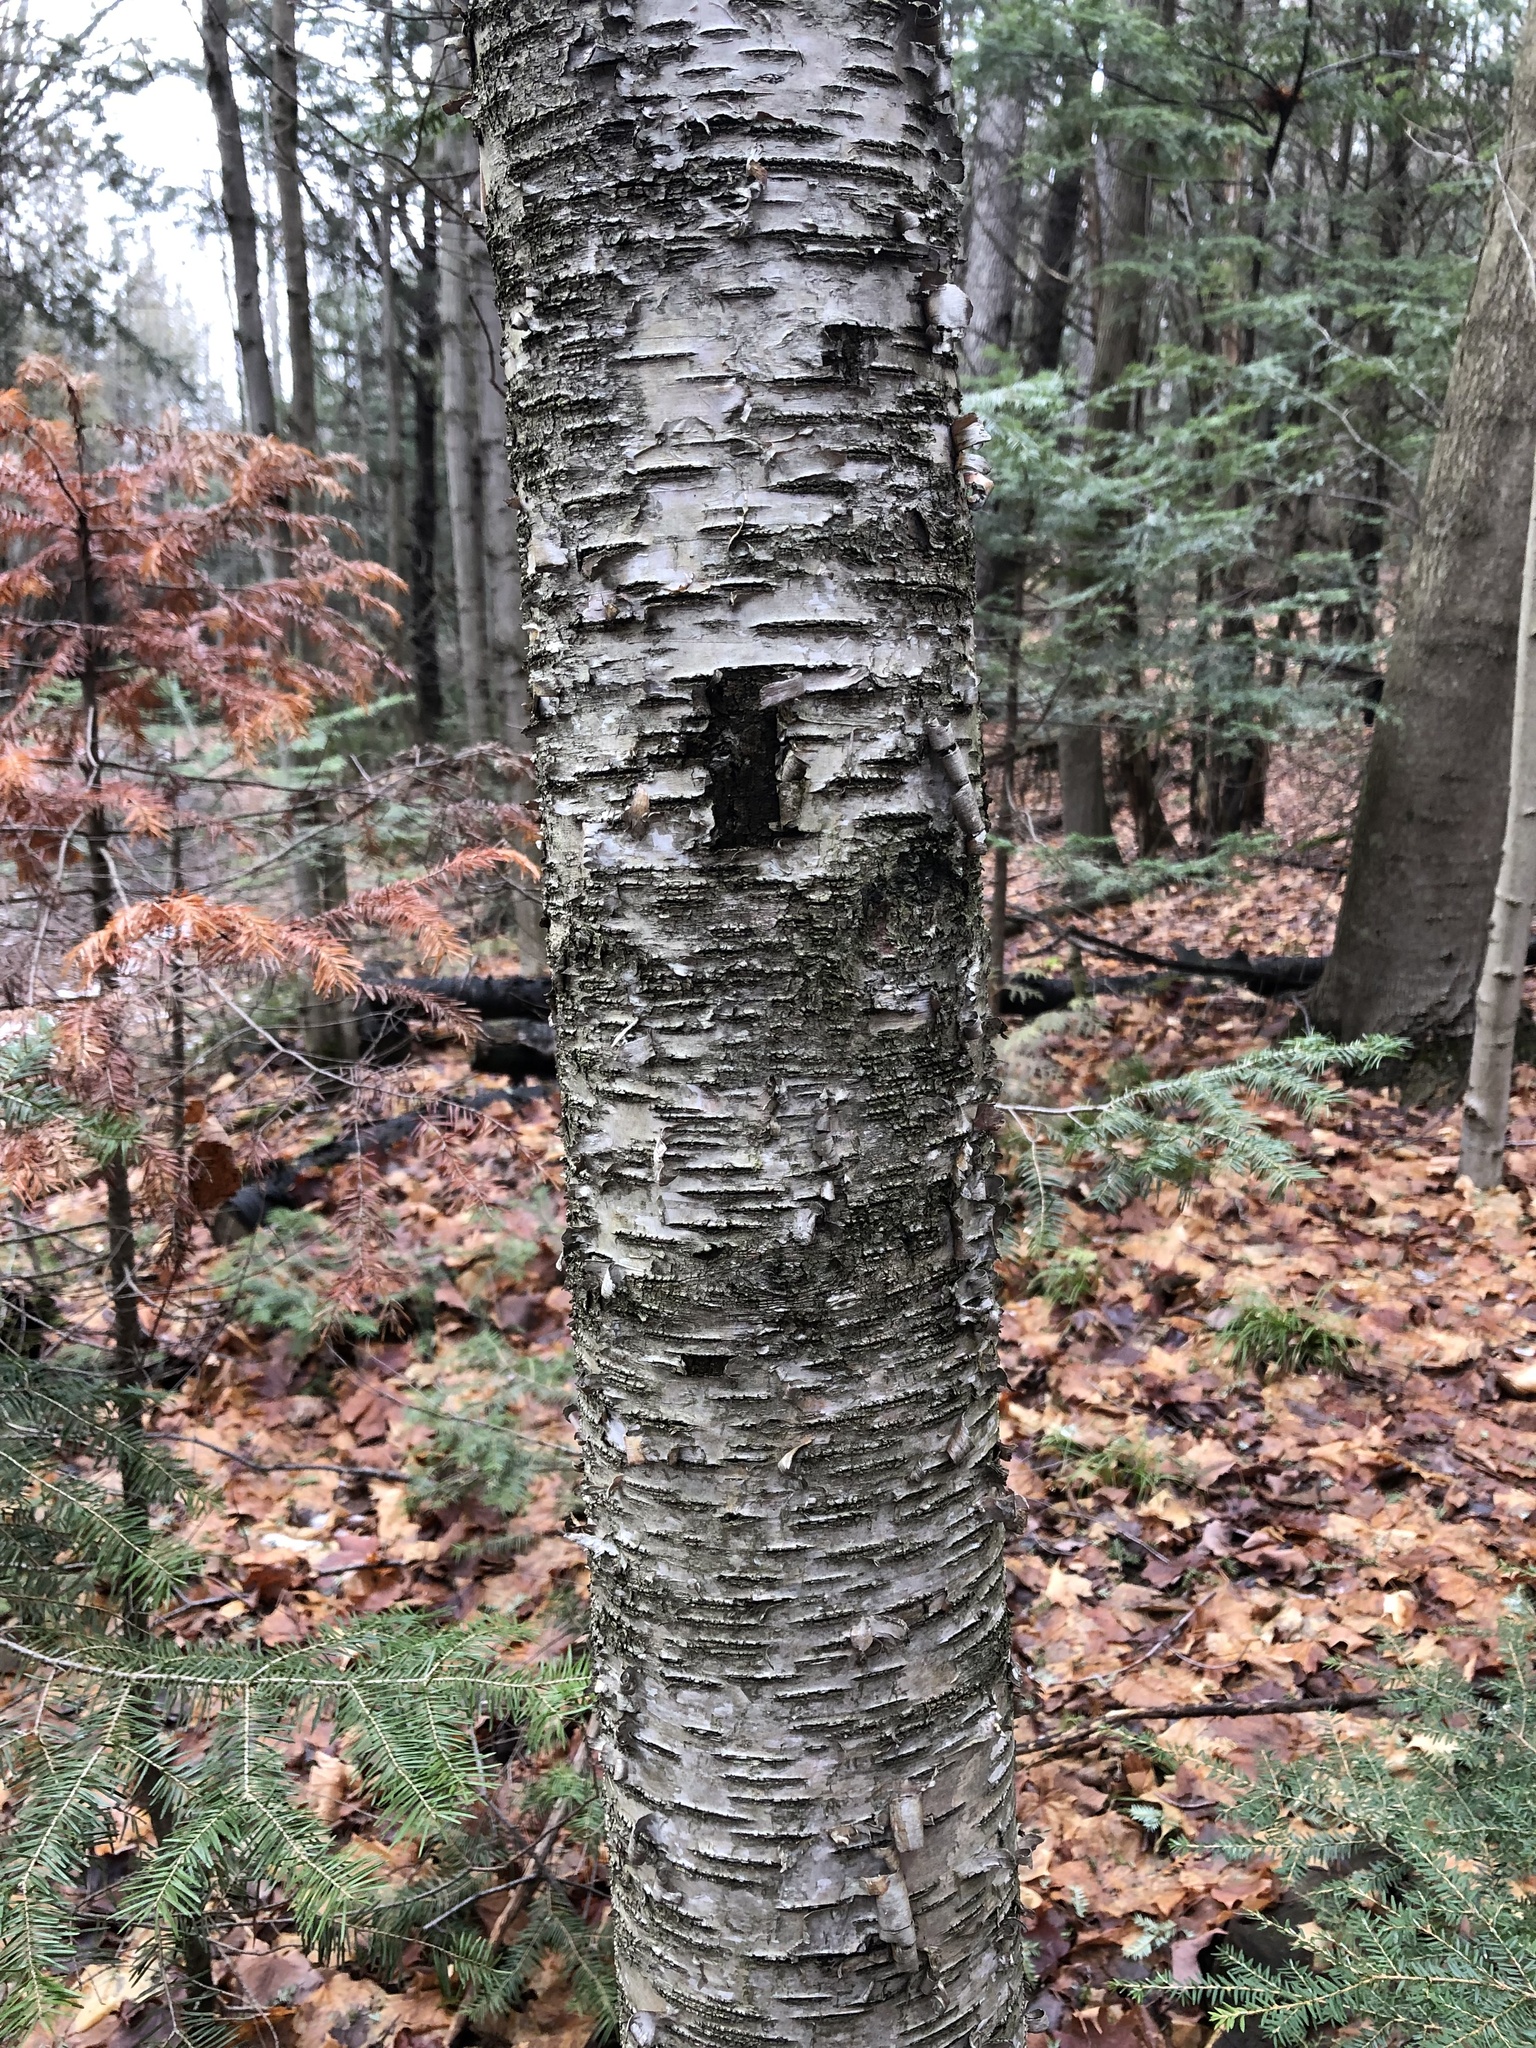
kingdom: Plantae
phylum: Tracheophyta
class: Magnoliopsida
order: Fagales
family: Betulaceae
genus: Betula
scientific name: Betula papyrifera
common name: Paper birch
